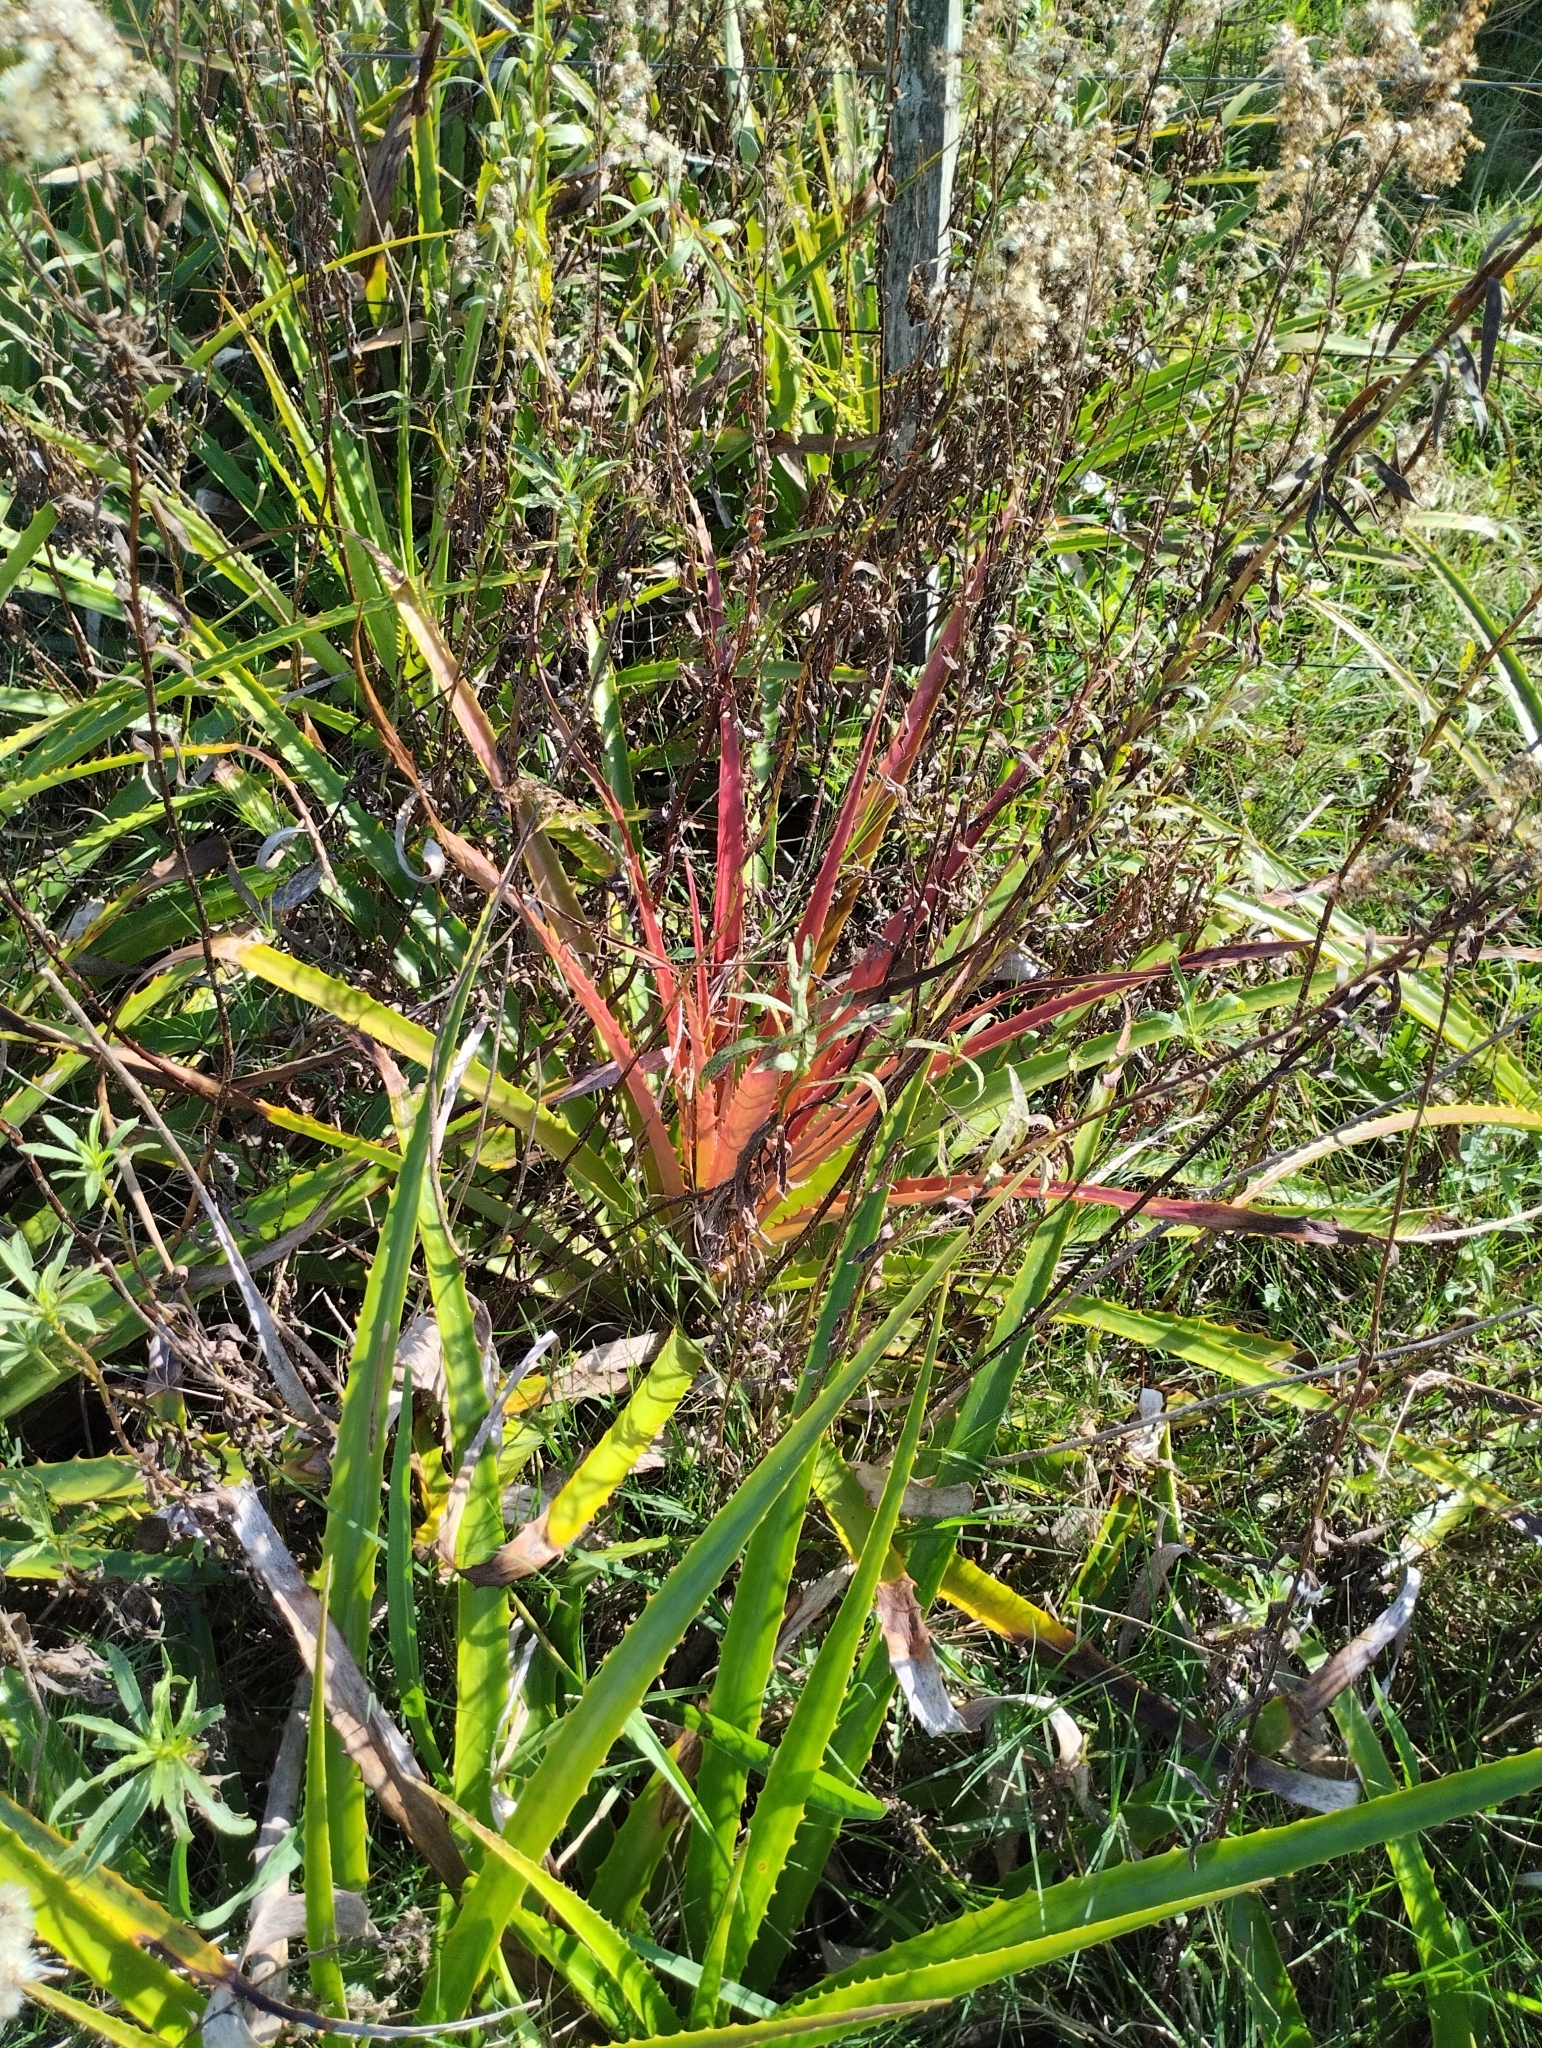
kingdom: Plantae
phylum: Tracheophyta
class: Liliopsida
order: Poales
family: Bromeliaceae
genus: Bromelia
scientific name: Bromelia antiacantha
